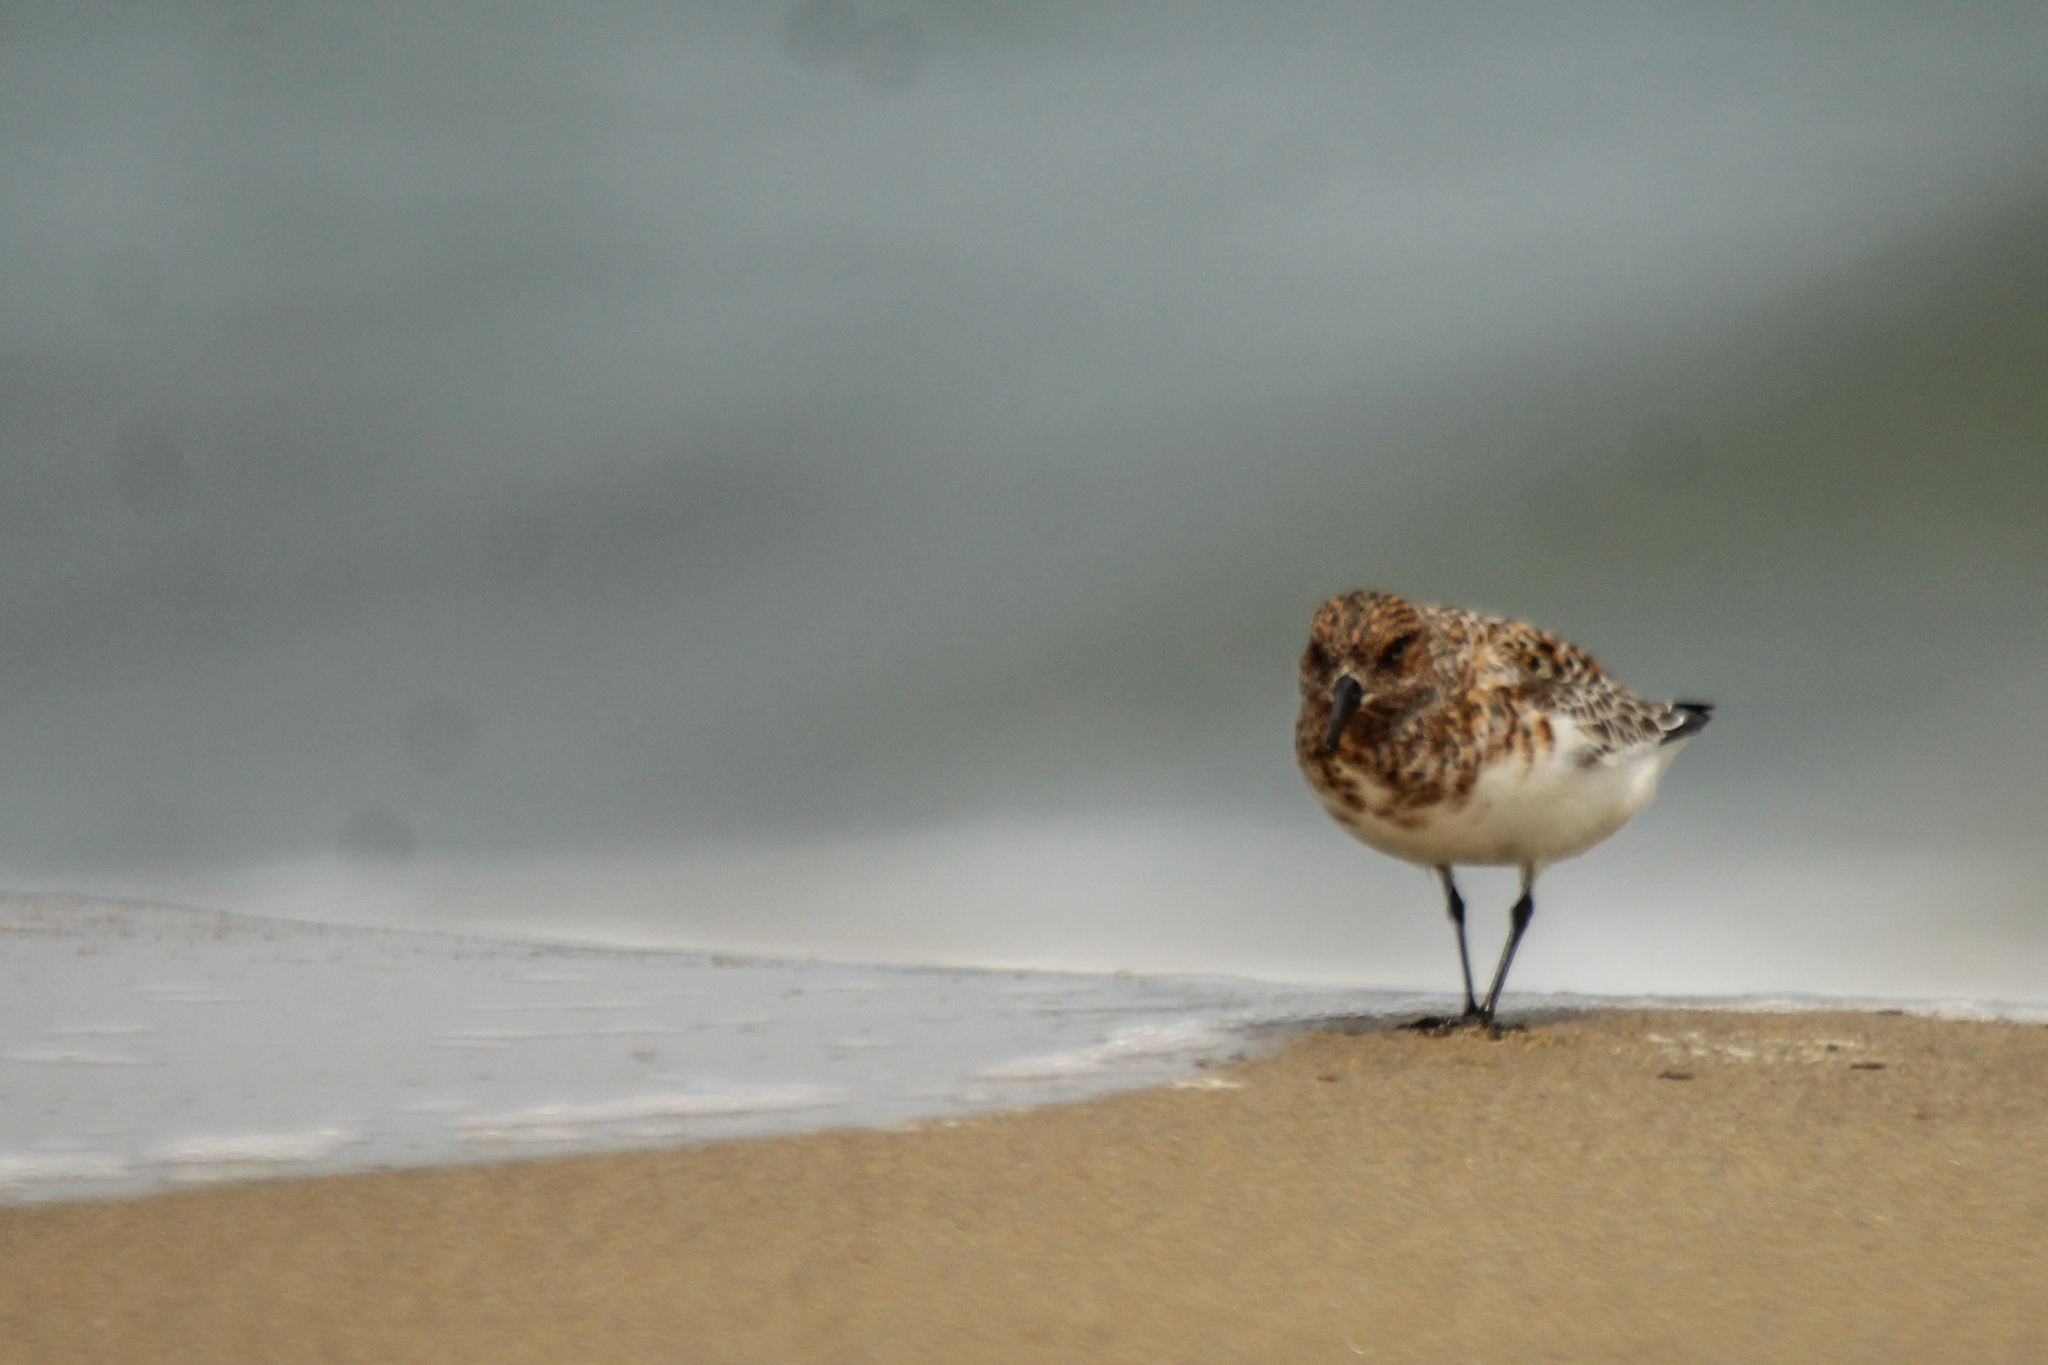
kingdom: Animalia
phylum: Chordata
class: Aves
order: Charadriiformes
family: Scolopacidae
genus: Calidris
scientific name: Calidris alba
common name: Sanderling
